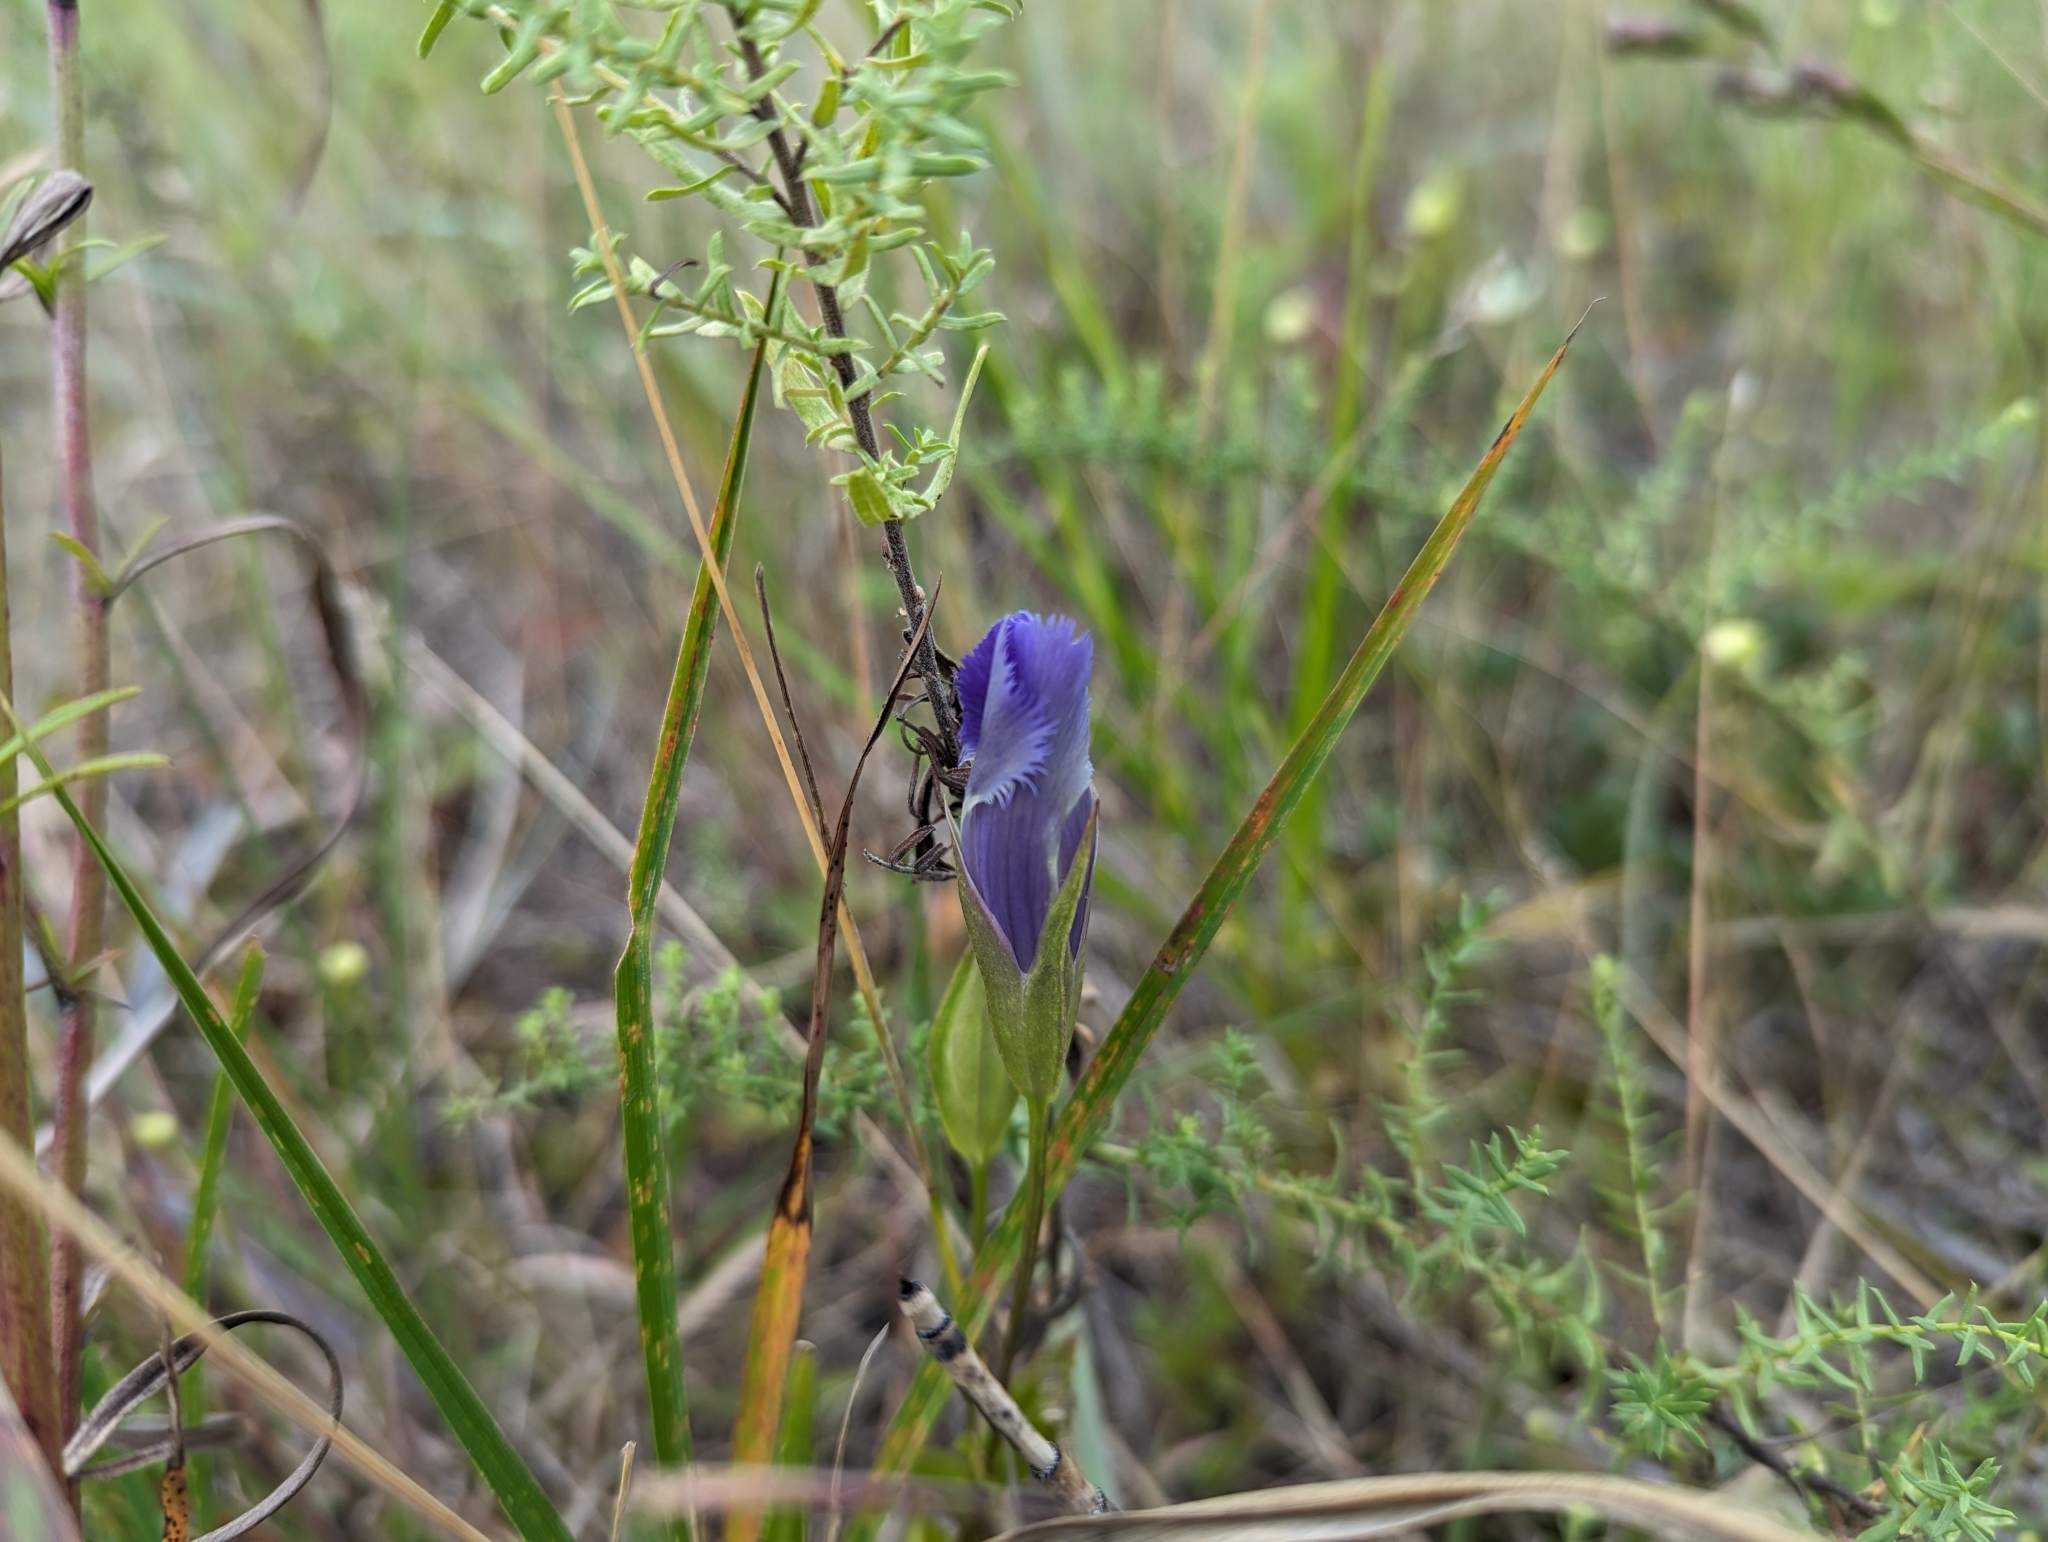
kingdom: Plantae
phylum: Tracheophyta
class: Magnoliopsida
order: Gentianales
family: Gentianaceae
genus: Gentianopsis
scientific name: Gentianopsis crinita
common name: Fringed-gentian
